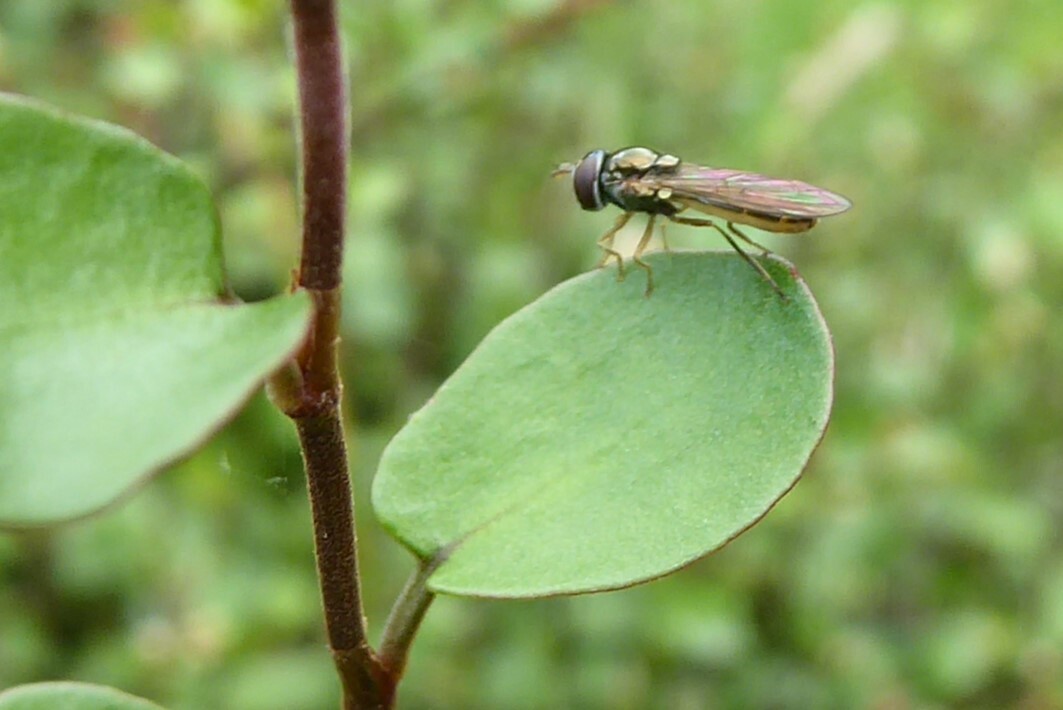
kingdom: Animalia
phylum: Arthropoda
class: Insecta
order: Diptera
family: Syrphidae
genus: Melanostoma
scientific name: Melanostoma fasciatum
